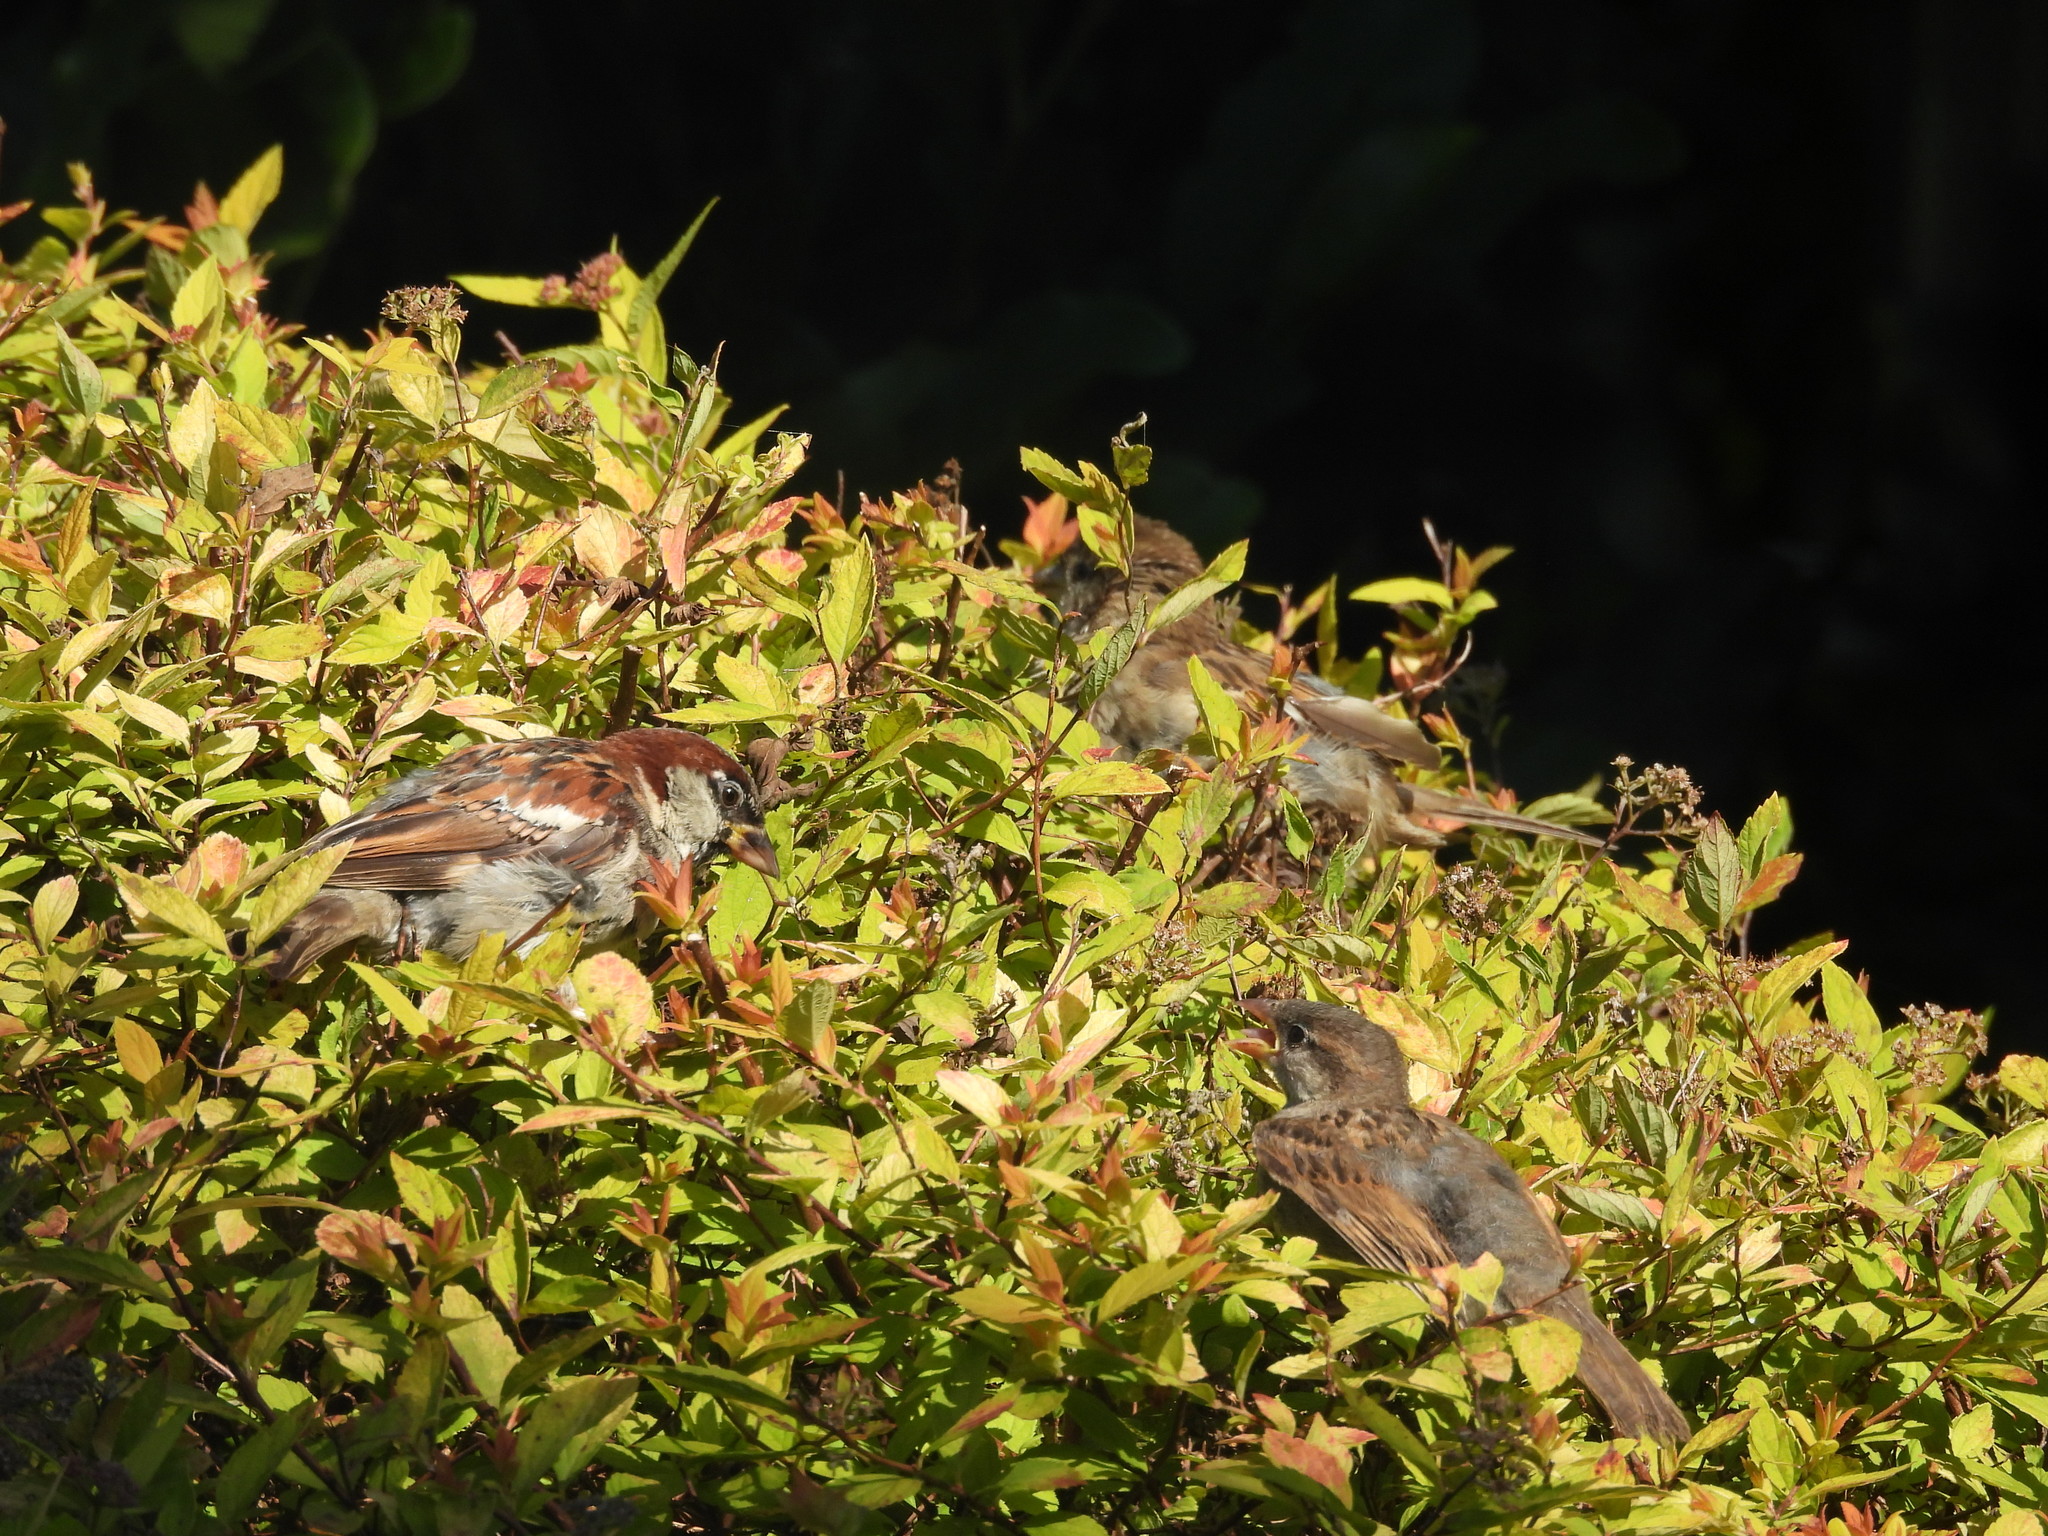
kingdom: Animalia
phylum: Chordata
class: Aves
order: Passeriformes
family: Passeridae
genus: Passer
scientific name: Passer domesticus
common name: House sparrow
